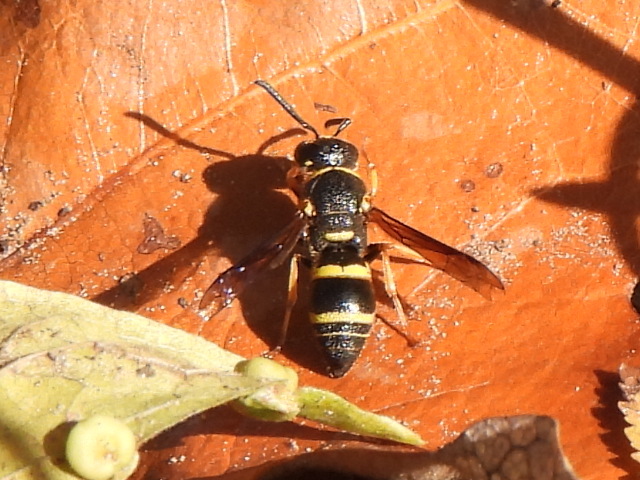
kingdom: Animalia
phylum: Arthropoda
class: Insecta
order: Hymenoptera
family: Eumenidae
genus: Euodynerus
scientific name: Euodynerus foraminatus
